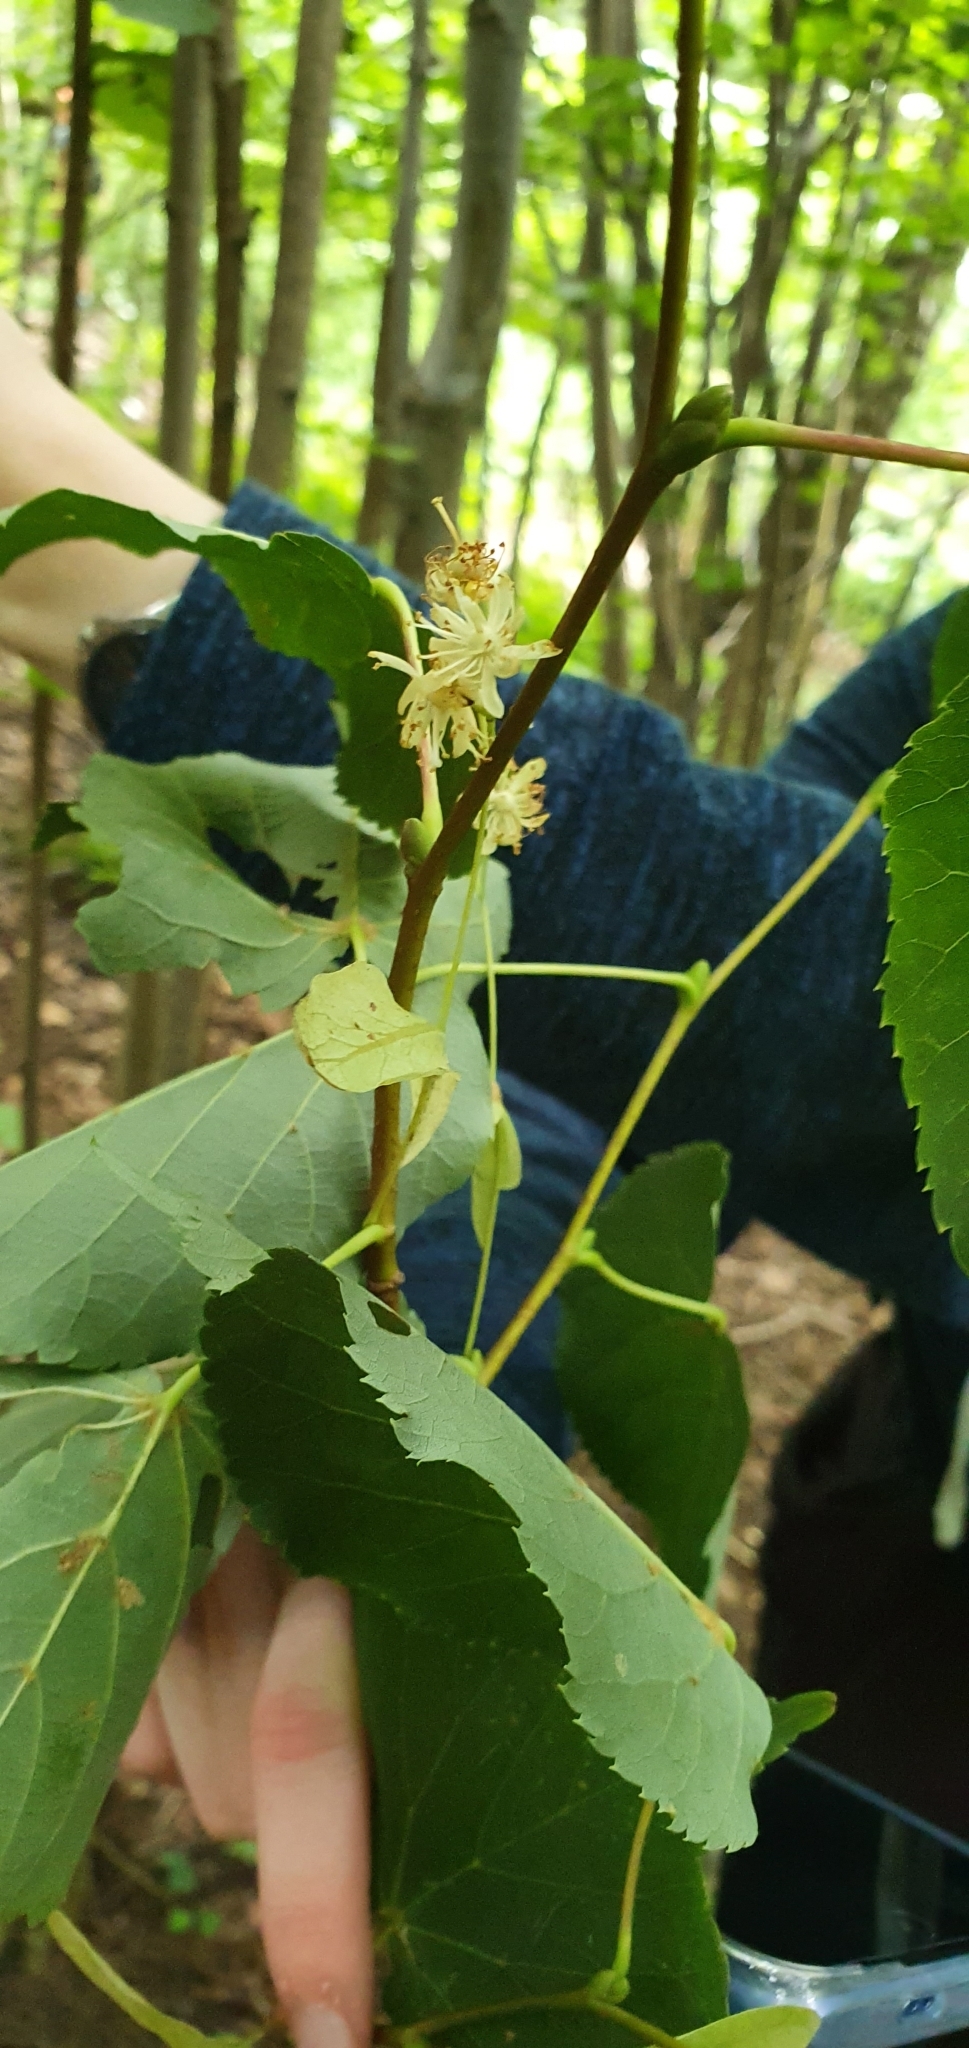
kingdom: Plantae
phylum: Tracheophyta
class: Magnoliopsida
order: Malvales
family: Malvaceae
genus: Tilia
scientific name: Tilia cordata
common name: Small-leaved lime
